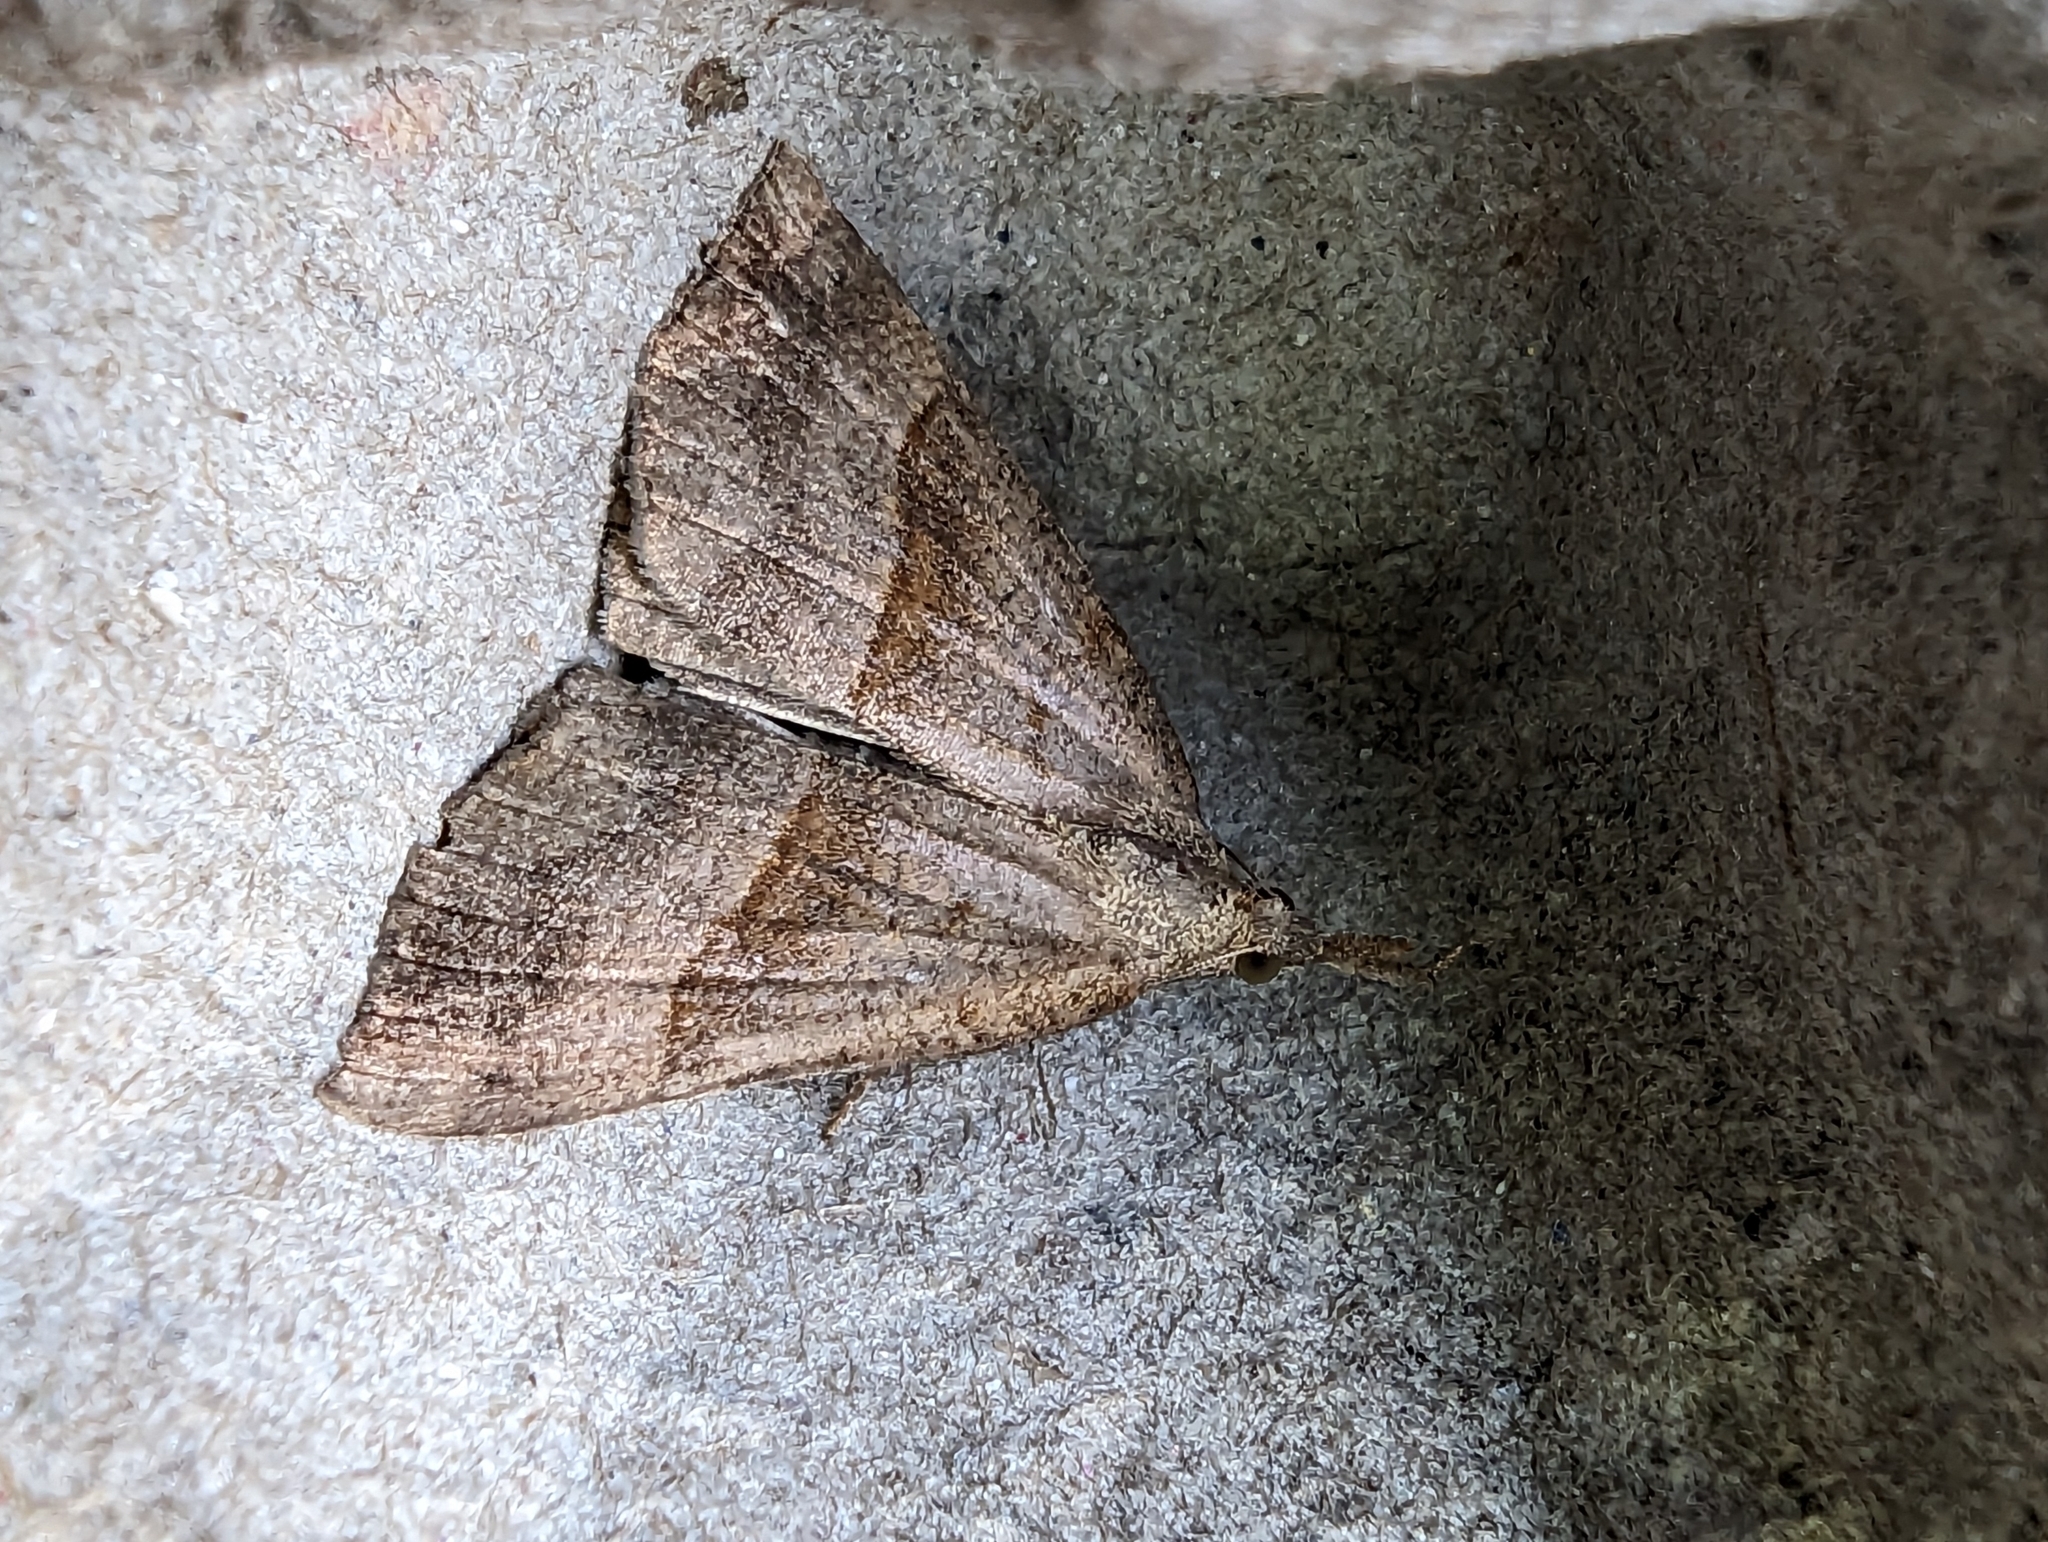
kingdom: Animalia
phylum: Arthropoda
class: Insecta
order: Lepidoptera
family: Erebidae
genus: Hypena
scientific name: Hypena proboscidalis
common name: Snout
